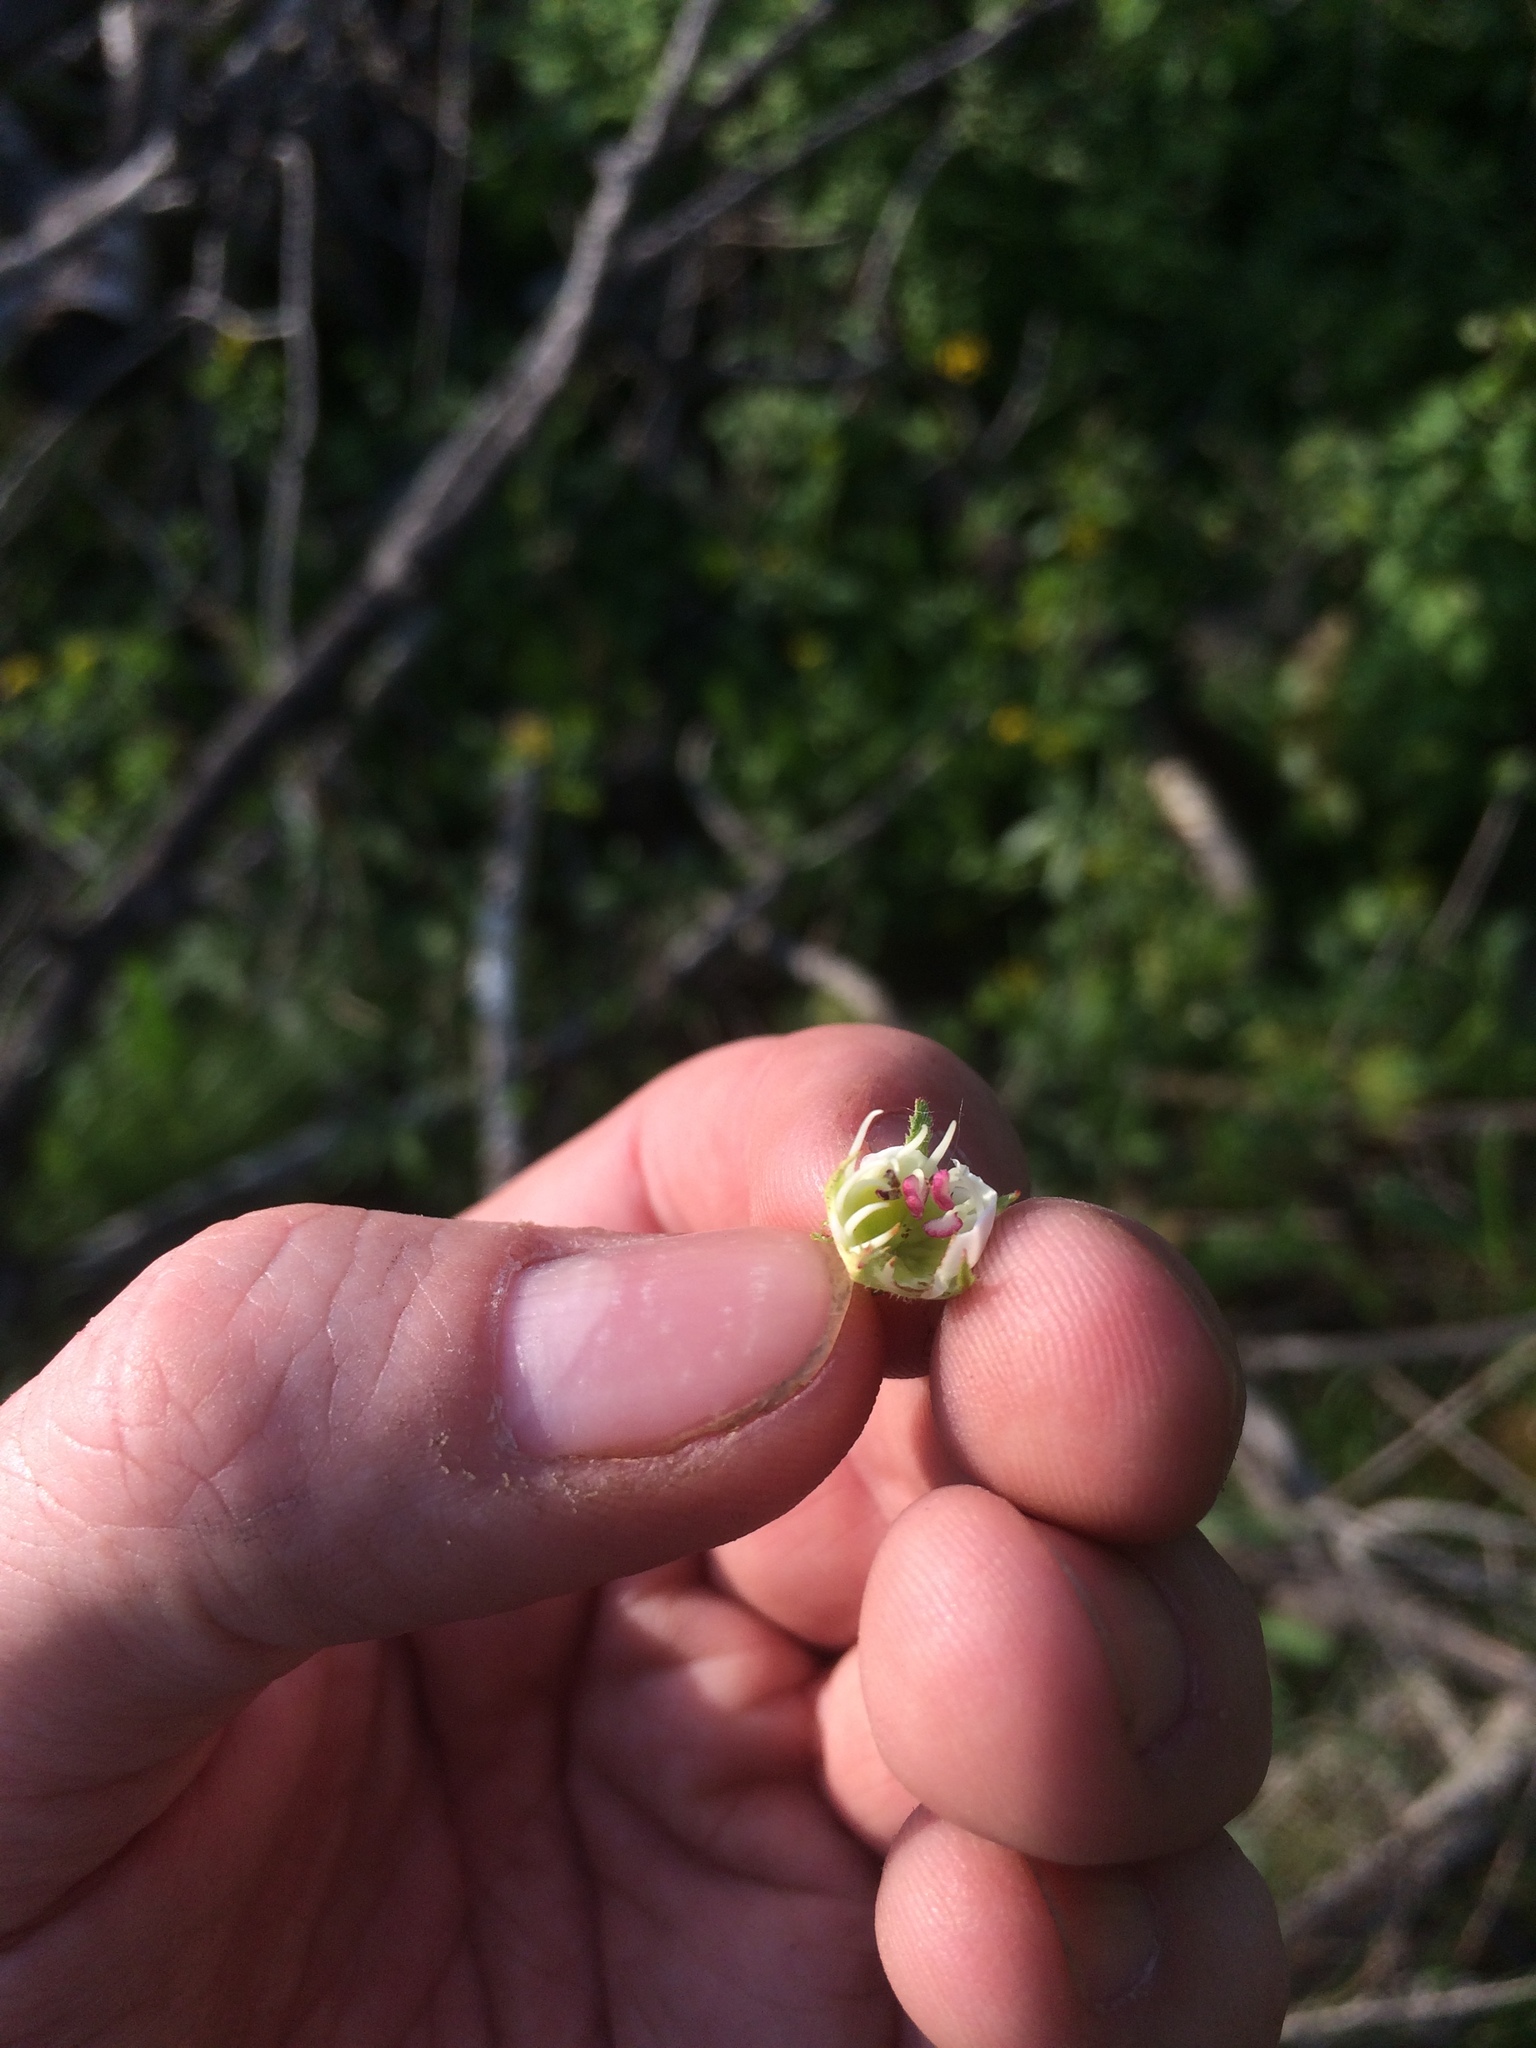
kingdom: Plantae
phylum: Tracheophyta
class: Magnoliopsida
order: Rosales
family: Rosaceae
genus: Crataegus
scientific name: Crataegus coccinioides
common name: Large-flowered cockspurthorn
